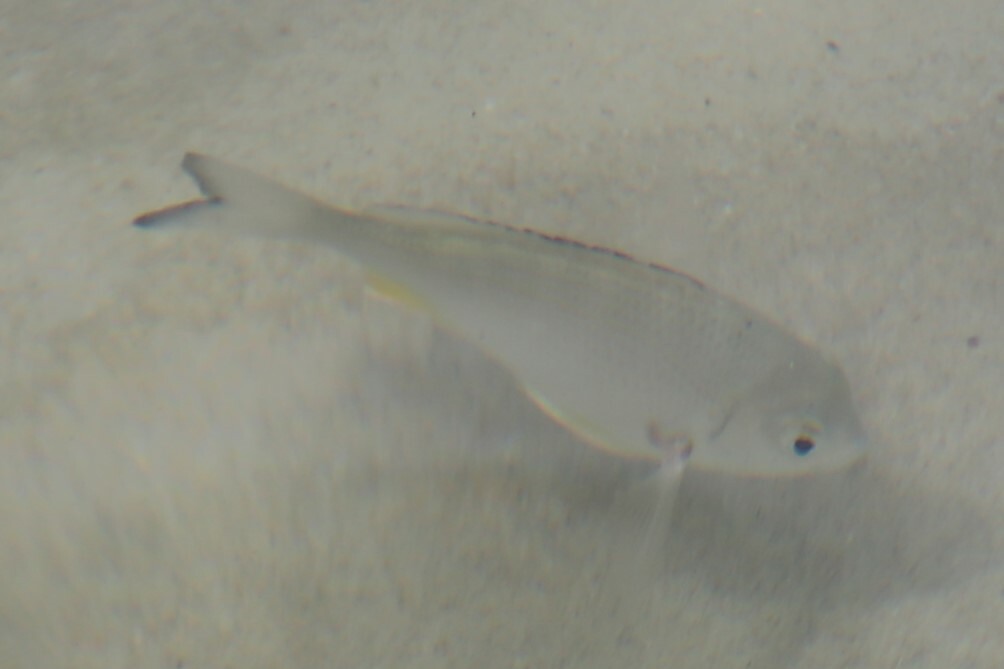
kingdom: Animalia
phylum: Chordata
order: Perciformes
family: Sparidae
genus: Acanthopagrus
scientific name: Acanthopagrus australis
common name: Surf bream
